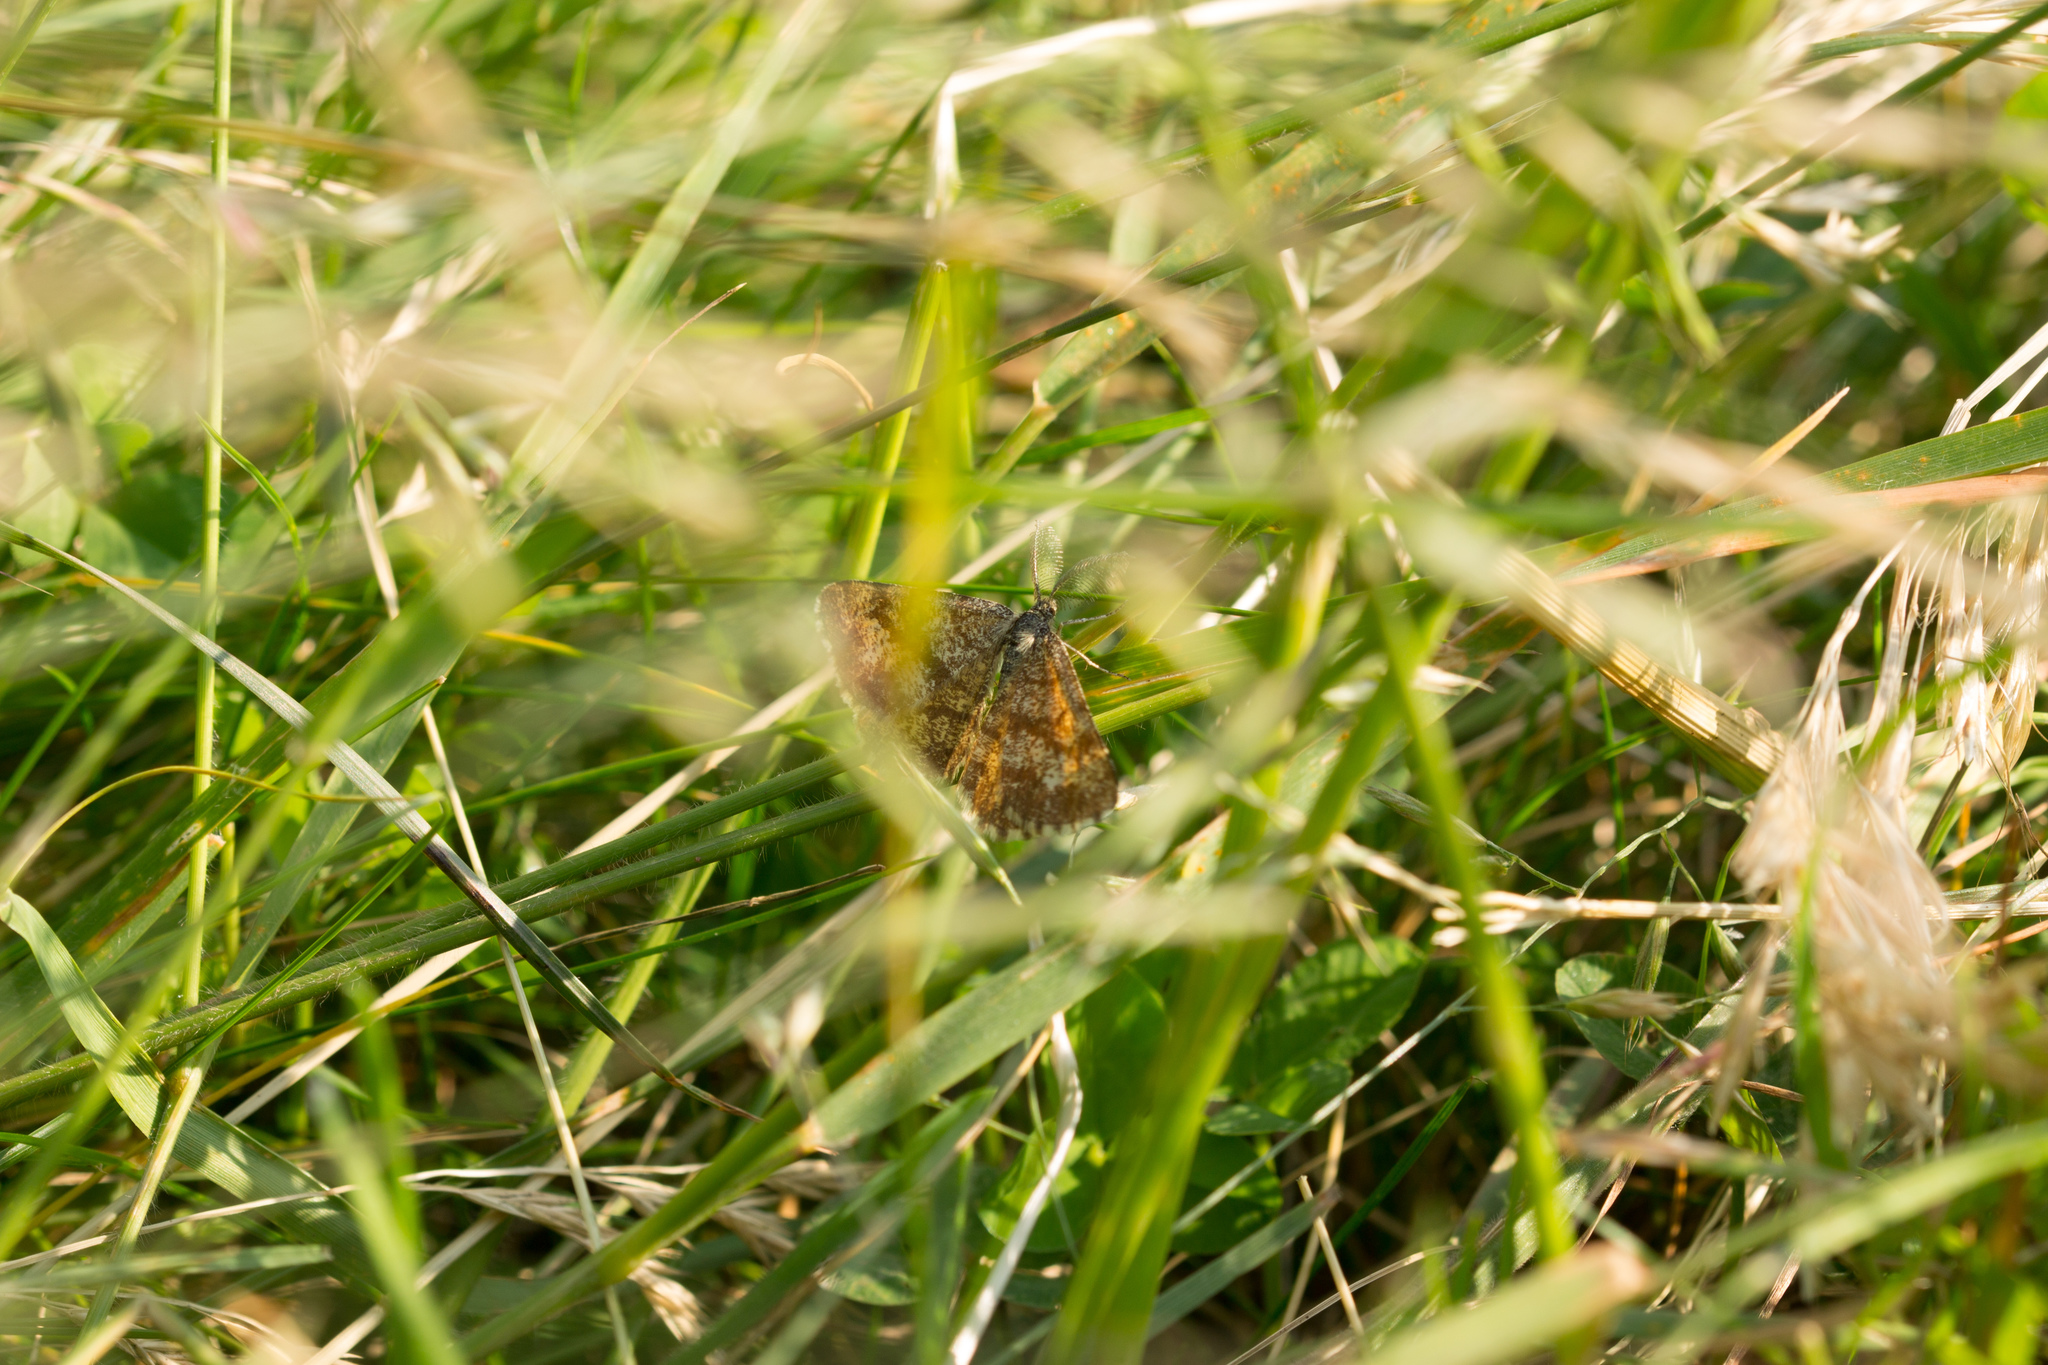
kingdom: Animalia
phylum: Arthropoda
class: Insecta
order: Lepidoptera
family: Geometridae
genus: Ematurga
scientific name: Ematurga atomaria
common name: Common heath
